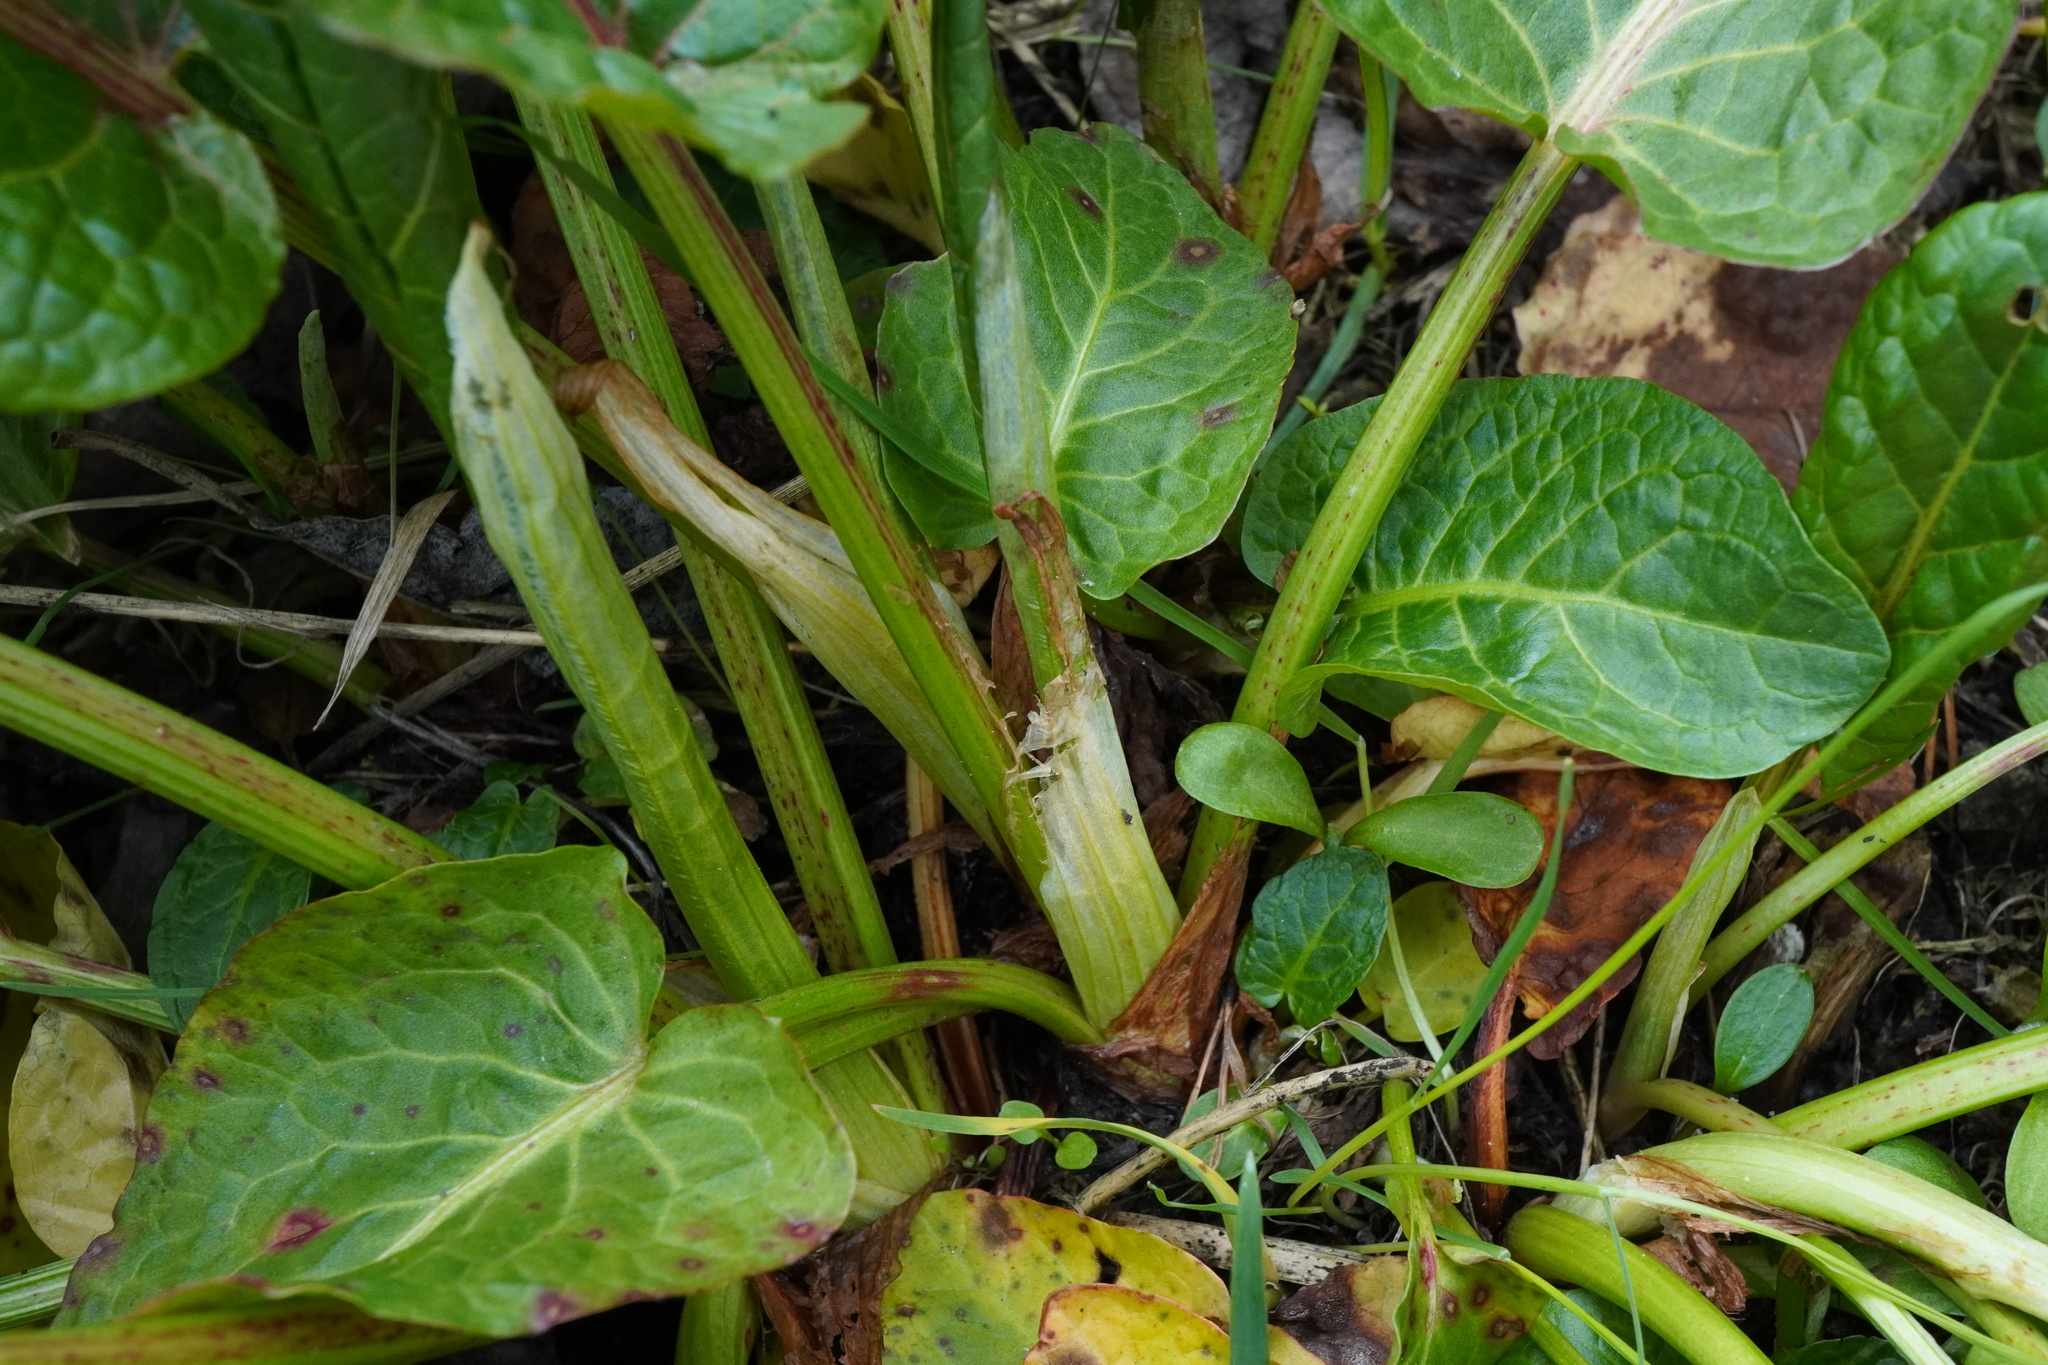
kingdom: Plantae
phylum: Tracheophyta
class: Magnoliopsida
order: Caryophyllales
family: Polygonaceae
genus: Rumex
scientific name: Rumex obtusifolius
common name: Bitter dock
